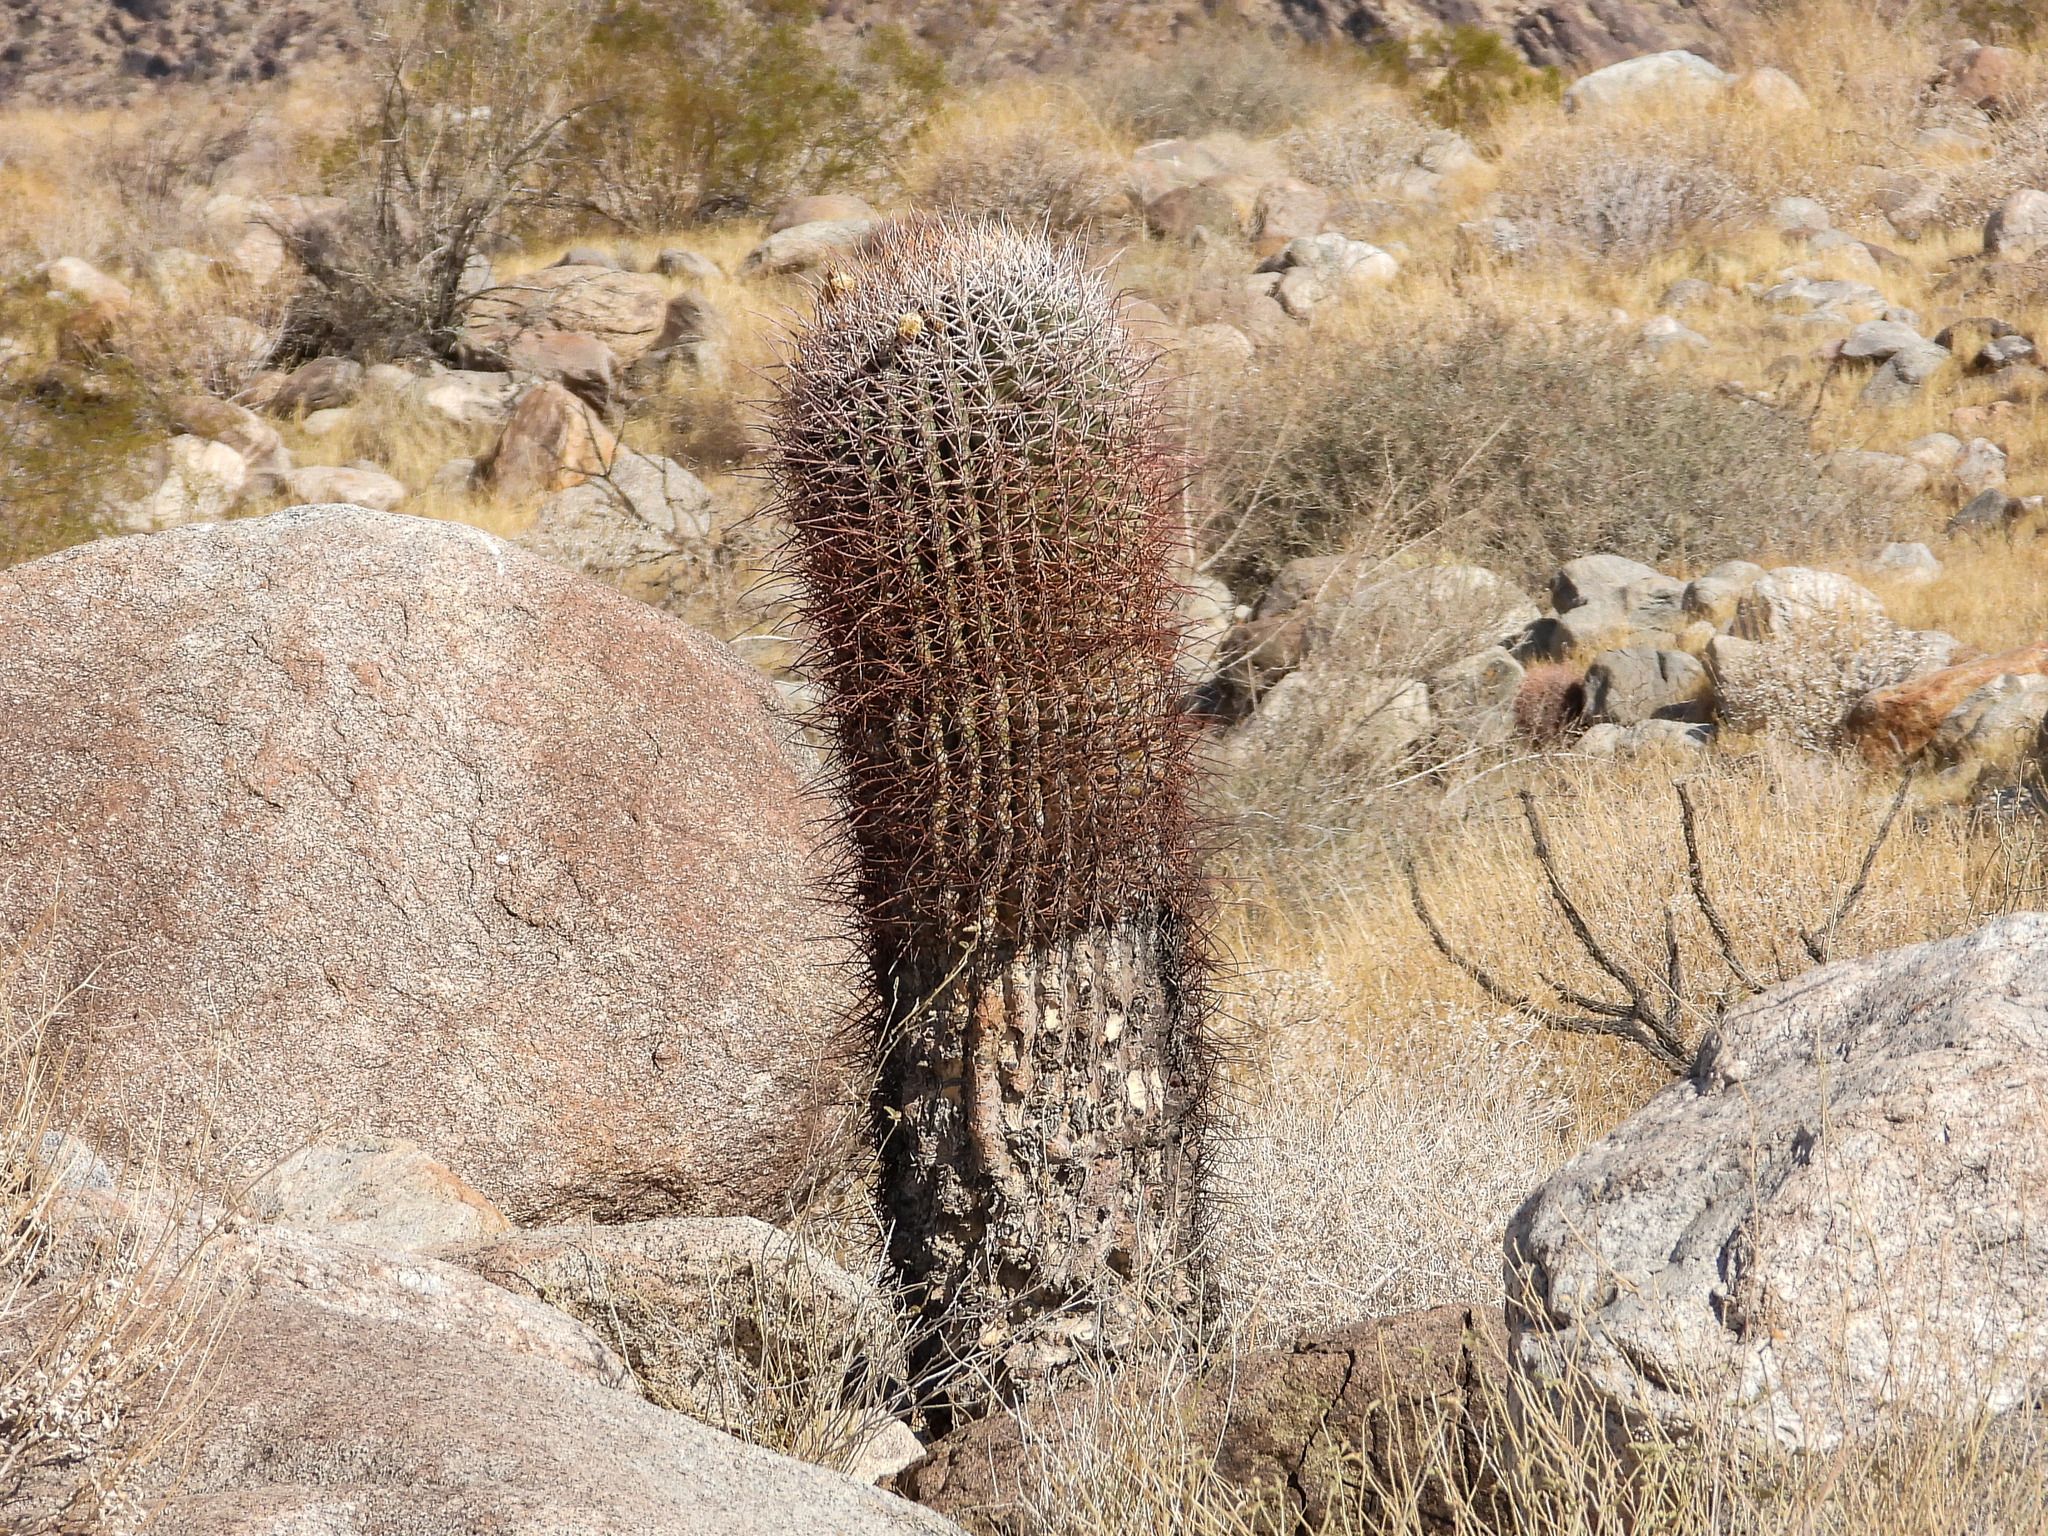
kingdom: Plantae
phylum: Tracheophyta
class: Magnoliopsida
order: Caryophyllales
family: Cactaceae
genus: Ferocactus
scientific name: Ferocactus cylindraceus
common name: California barrel cactus
